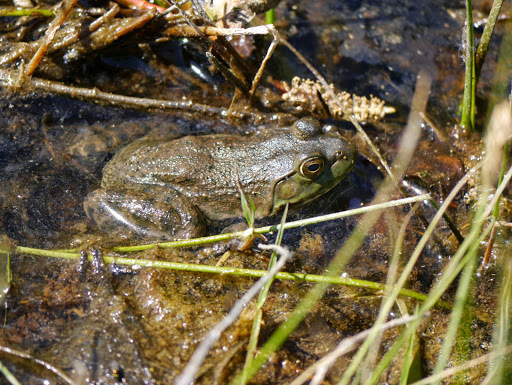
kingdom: Animalia
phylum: Chordata
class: Amphibia
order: Anura
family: Ranidae
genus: Lithobates
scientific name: Lithobates catesbeianus
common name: American bullfrog
